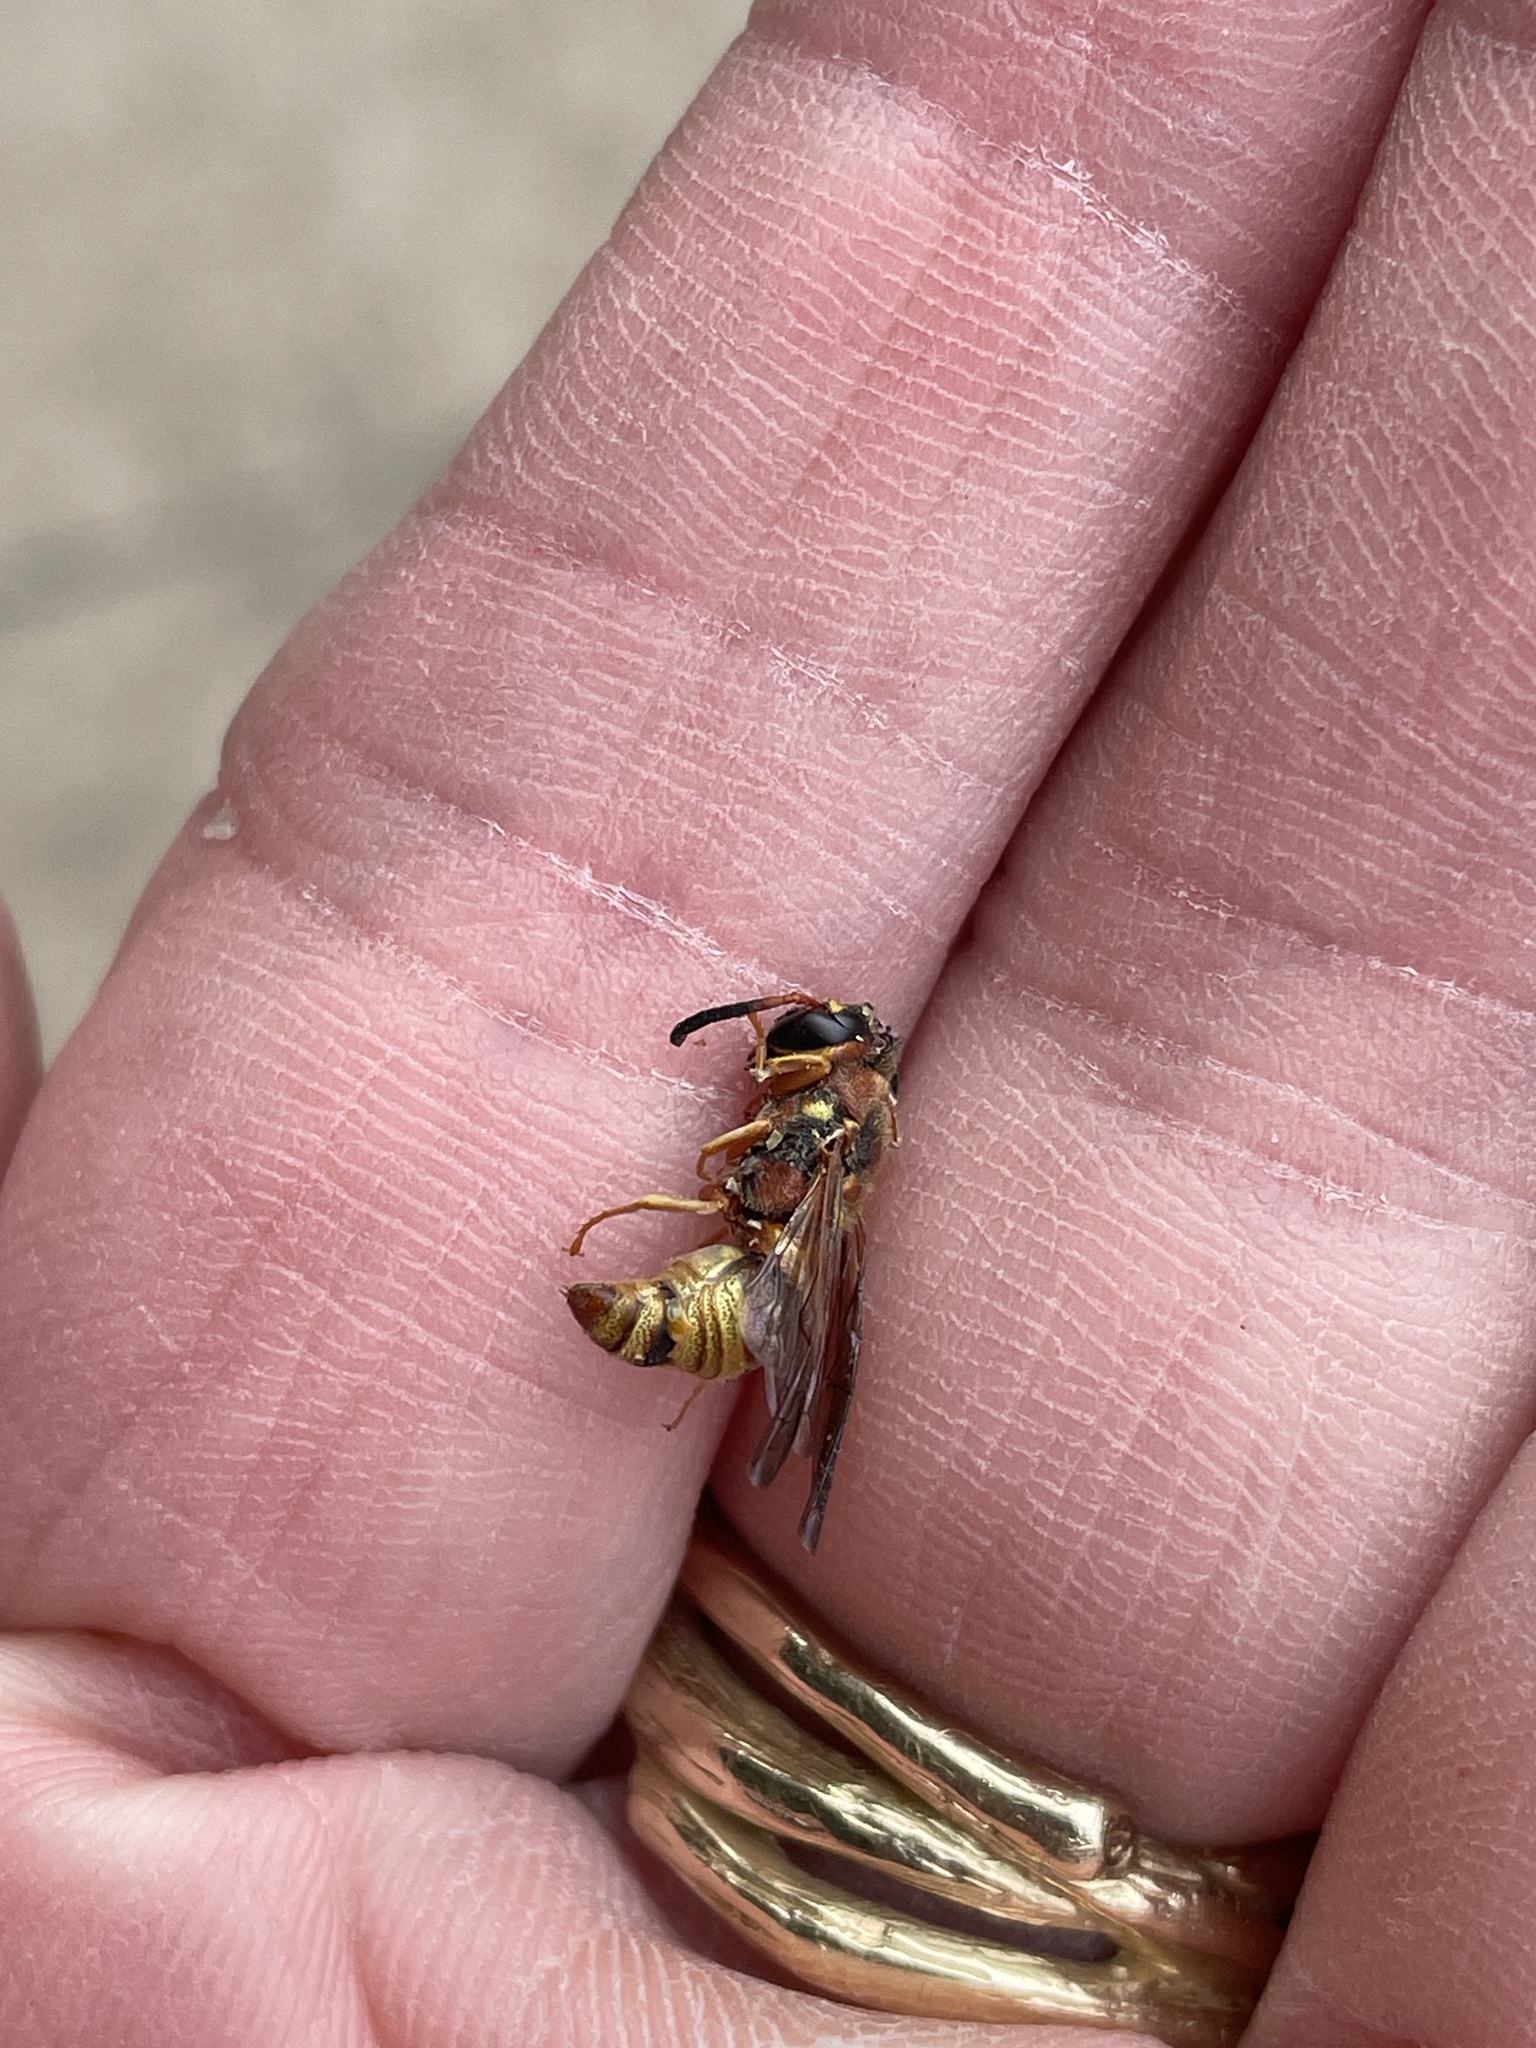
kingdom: Animalia
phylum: Arthropoda
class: Insecta
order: Hymenoptera
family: Eumenidae
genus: Euodynerus
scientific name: Euodynerus pratensis
